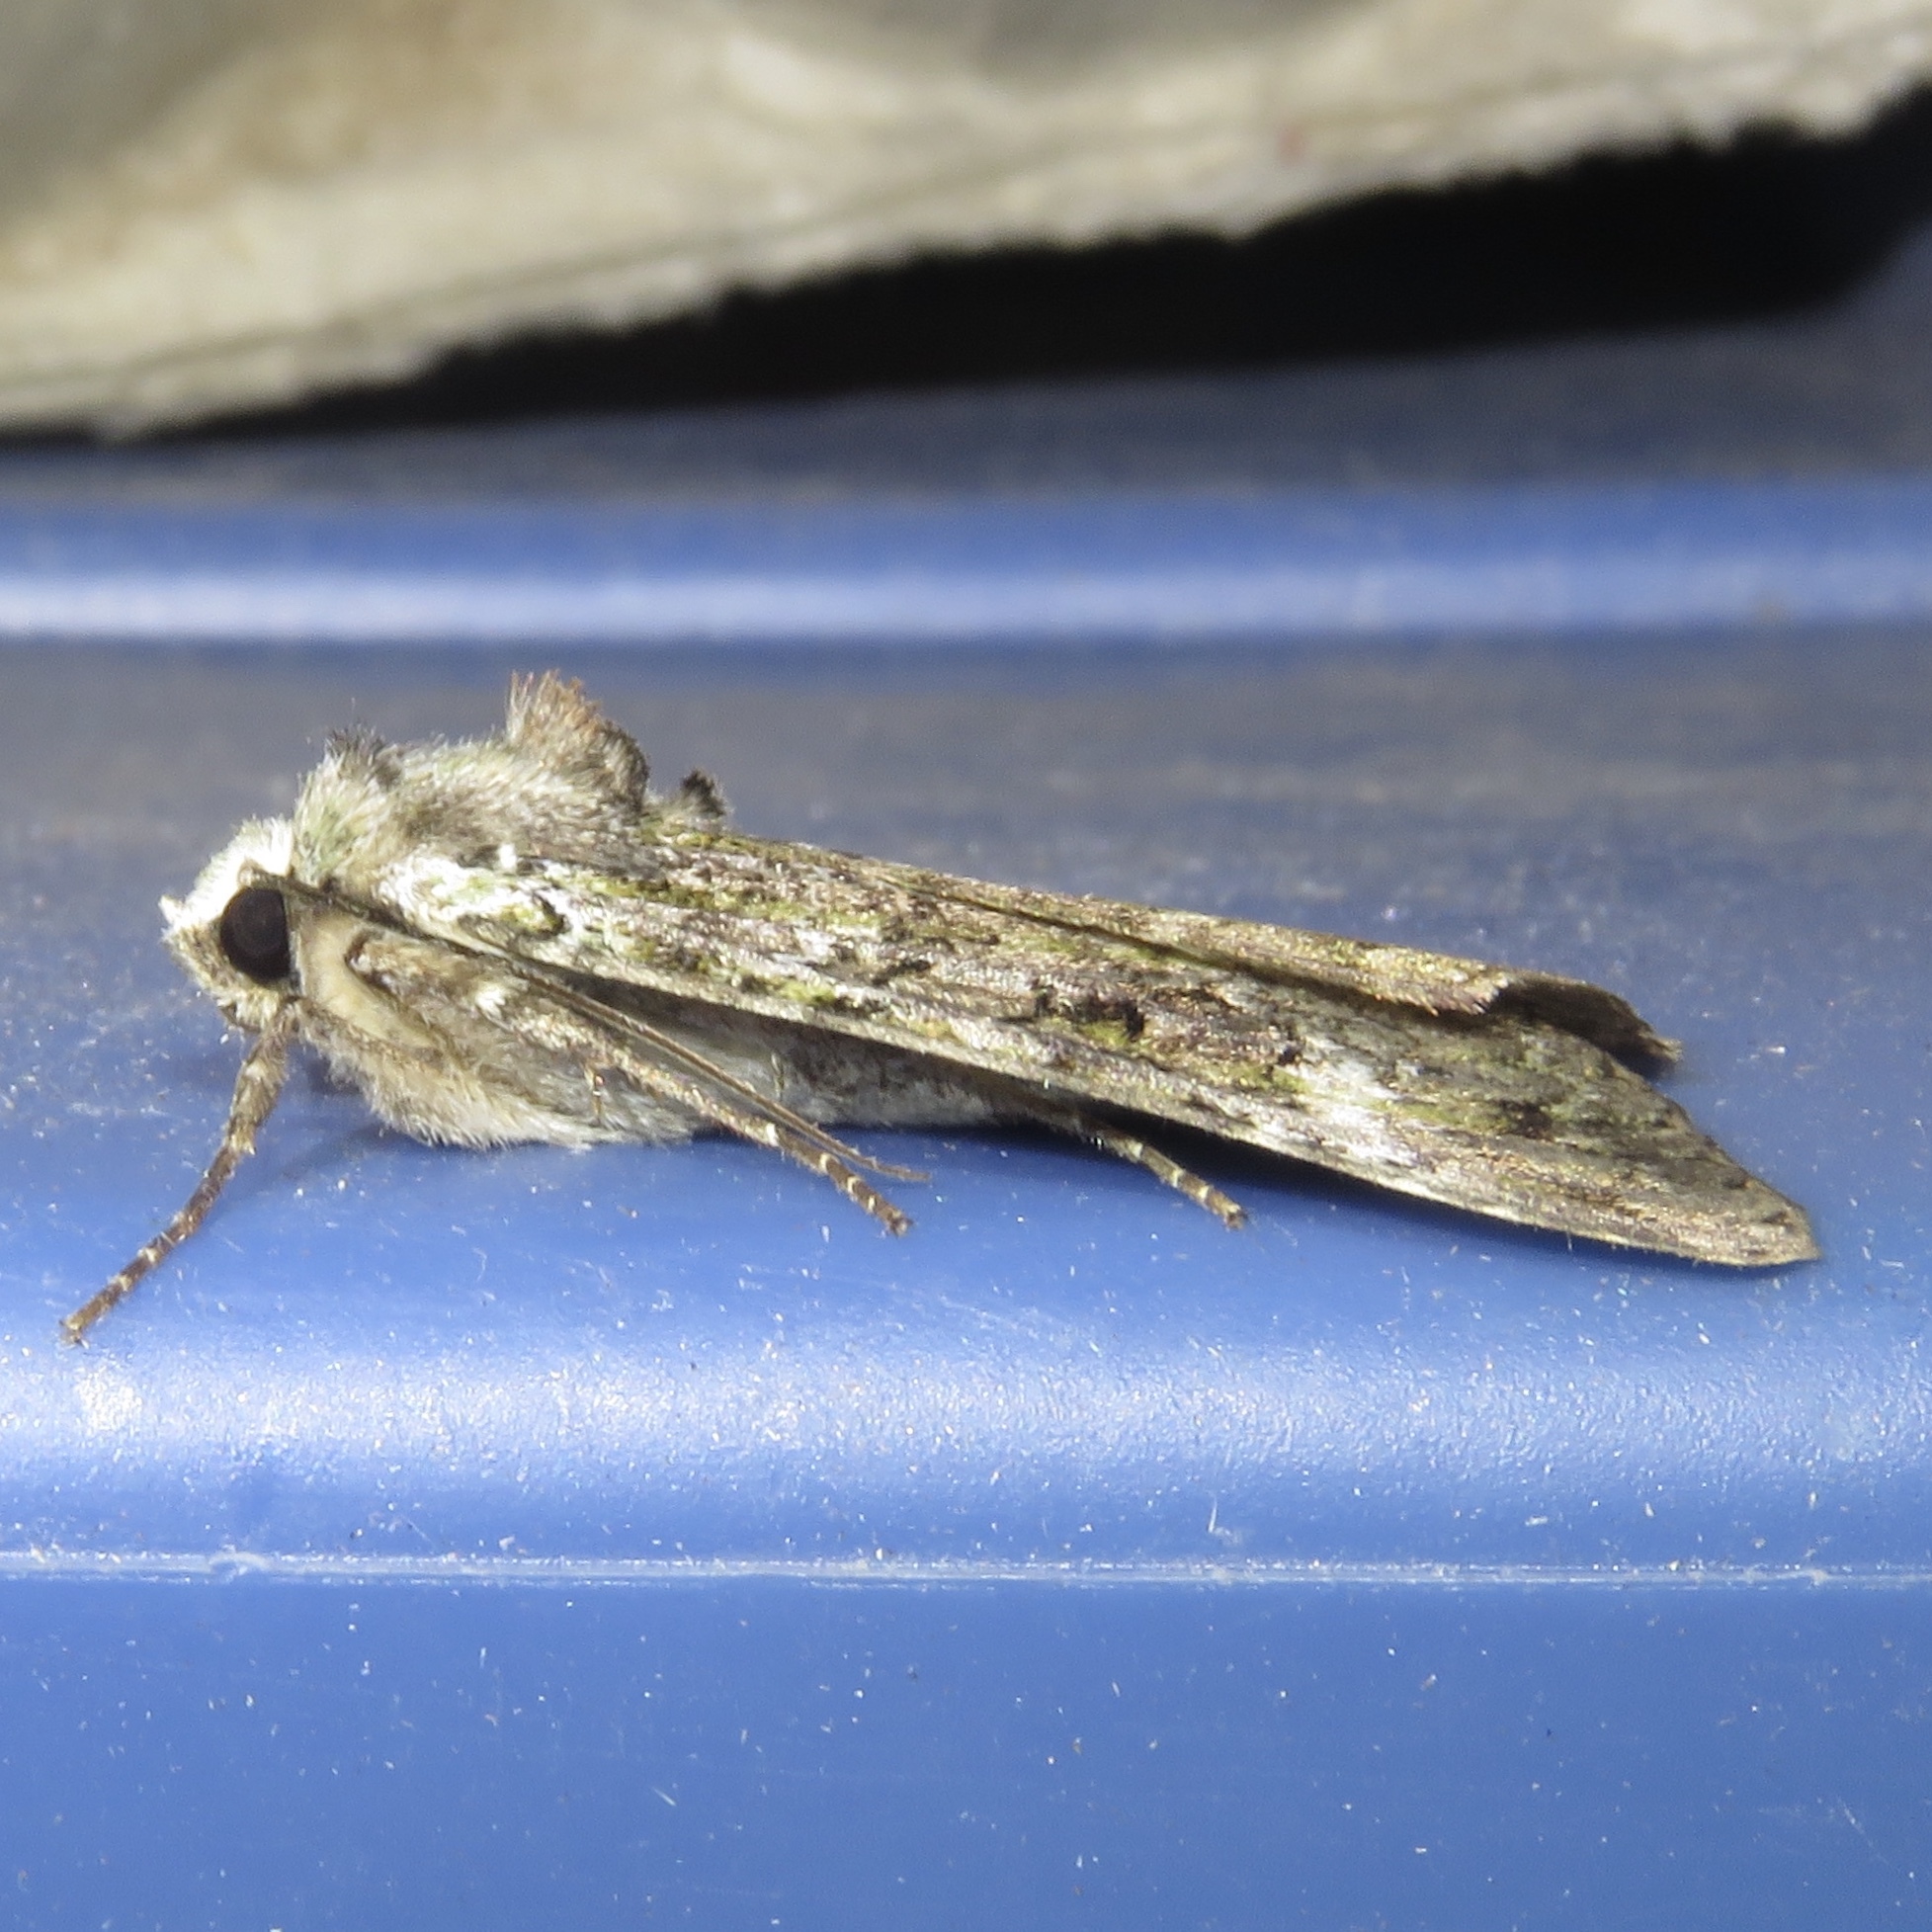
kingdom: Animalia
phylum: Arthropoda
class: Insecta
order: Lepidoptera
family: Noctuidae
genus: Anaplectoides
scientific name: Anaplectoides prasina
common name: Green arches
